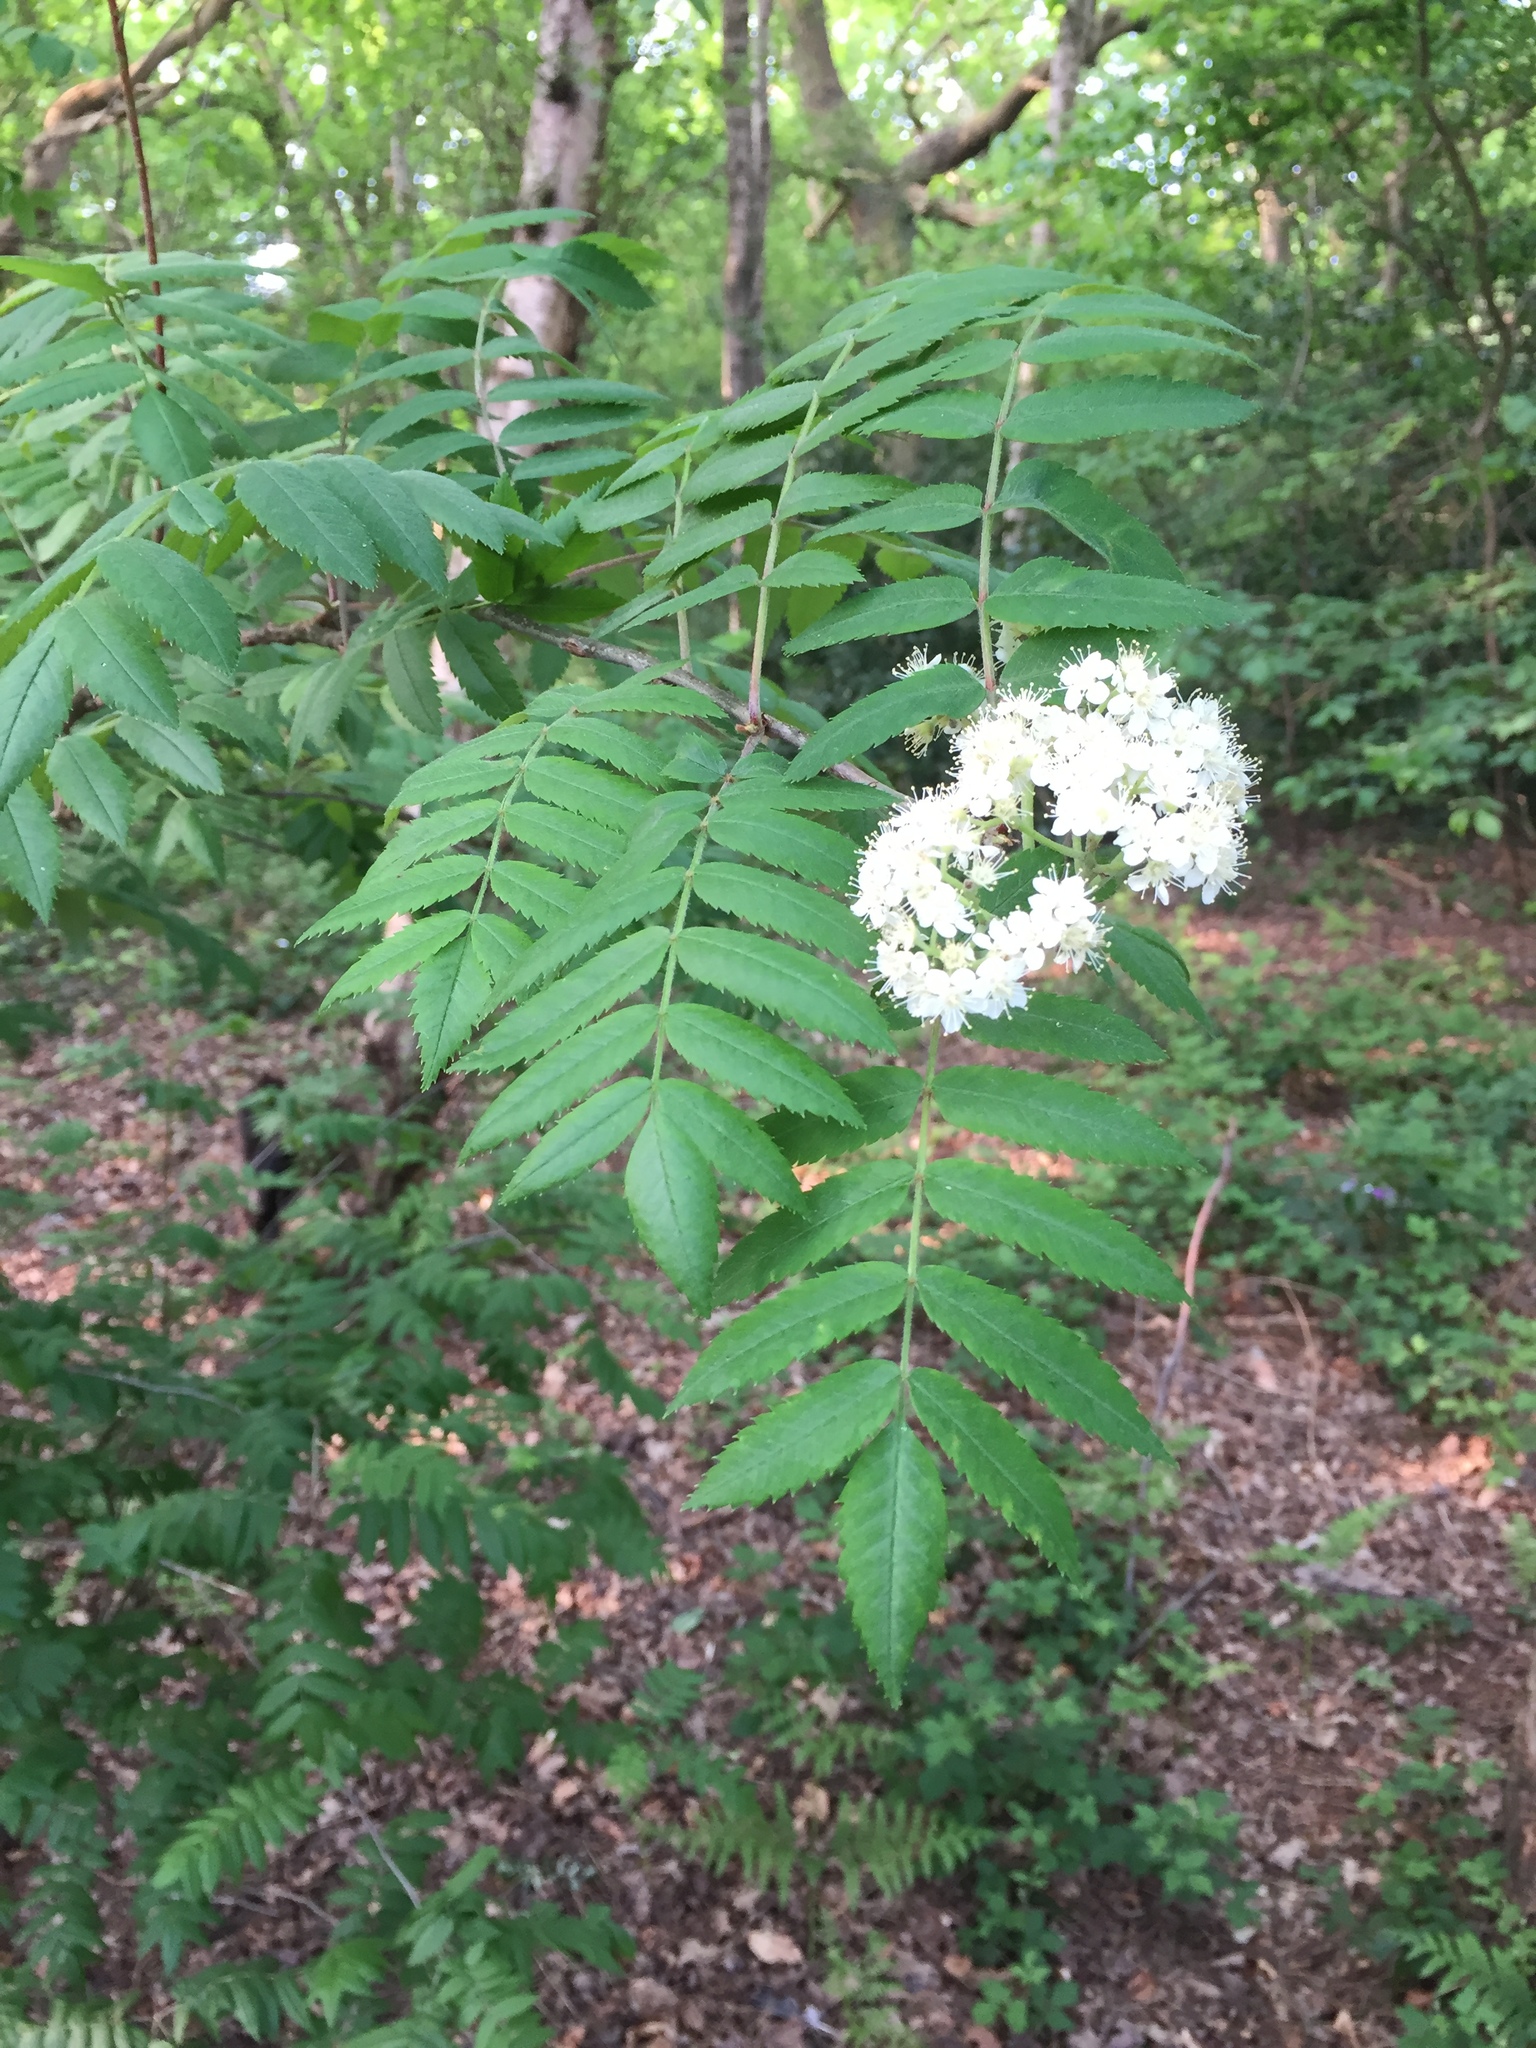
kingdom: Plantae
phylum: Tracheophyta
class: Magnoliopsida
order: Rosales
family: Rosaceae
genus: Sorbus
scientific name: Sorbus aucuparia
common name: Rowan
